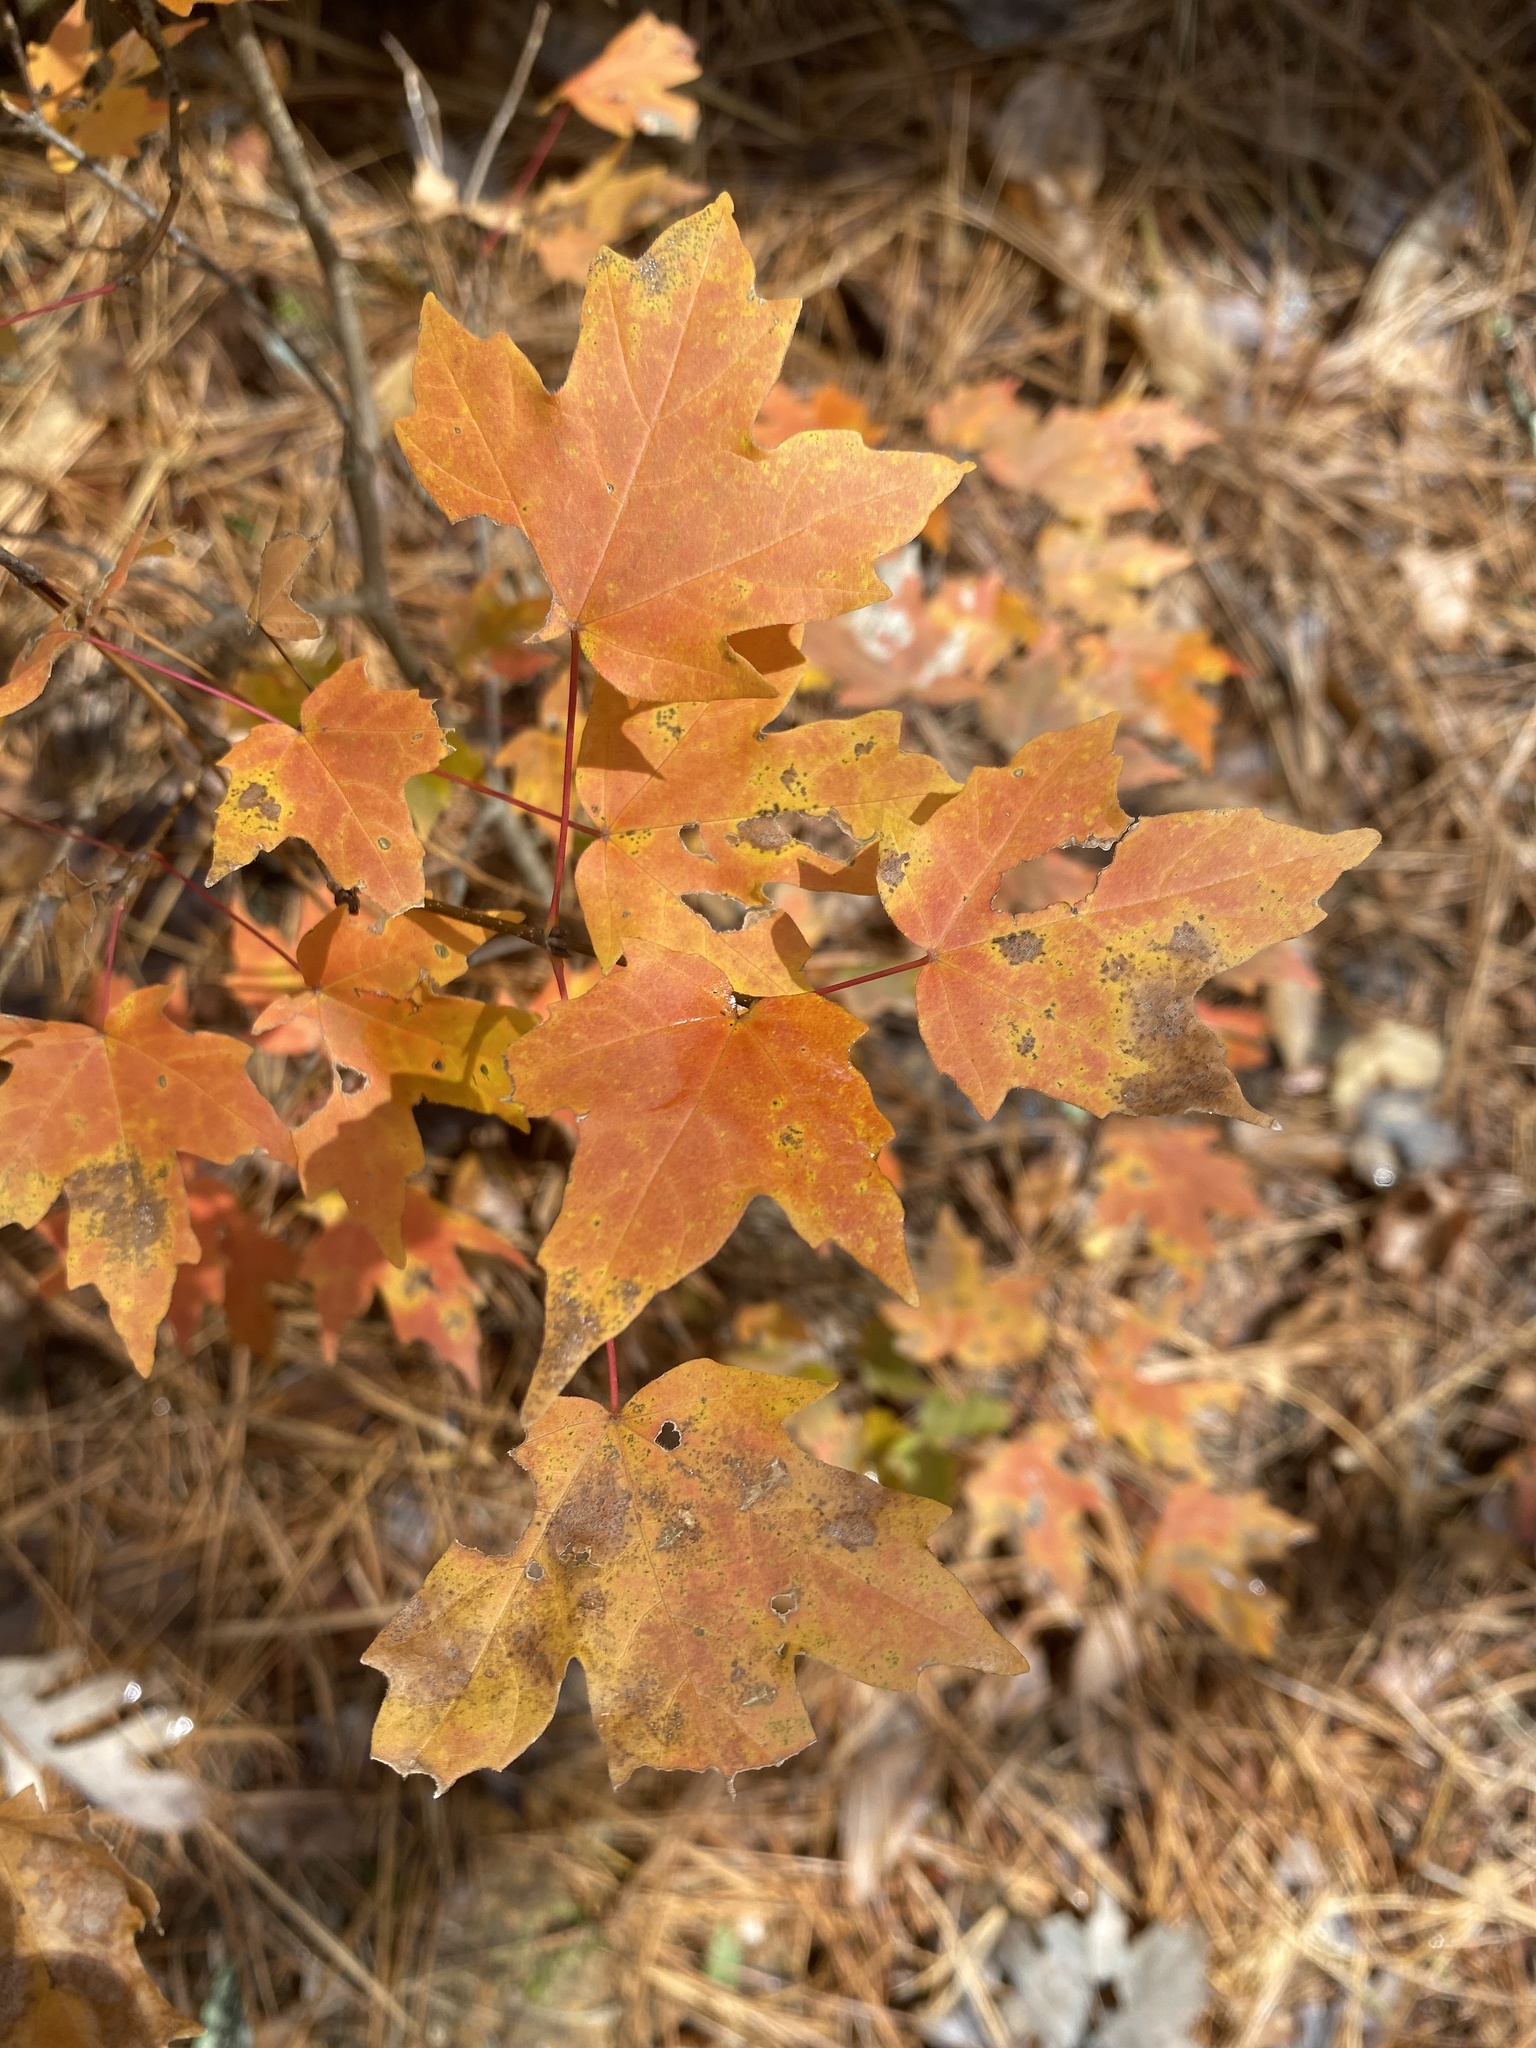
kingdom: Plantae
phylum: Tracheophyta
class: Magnoliopsida
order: Sapindales
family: Sapindaceae
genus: Acer
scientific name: Acer leucoderme
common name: Chalk maple
